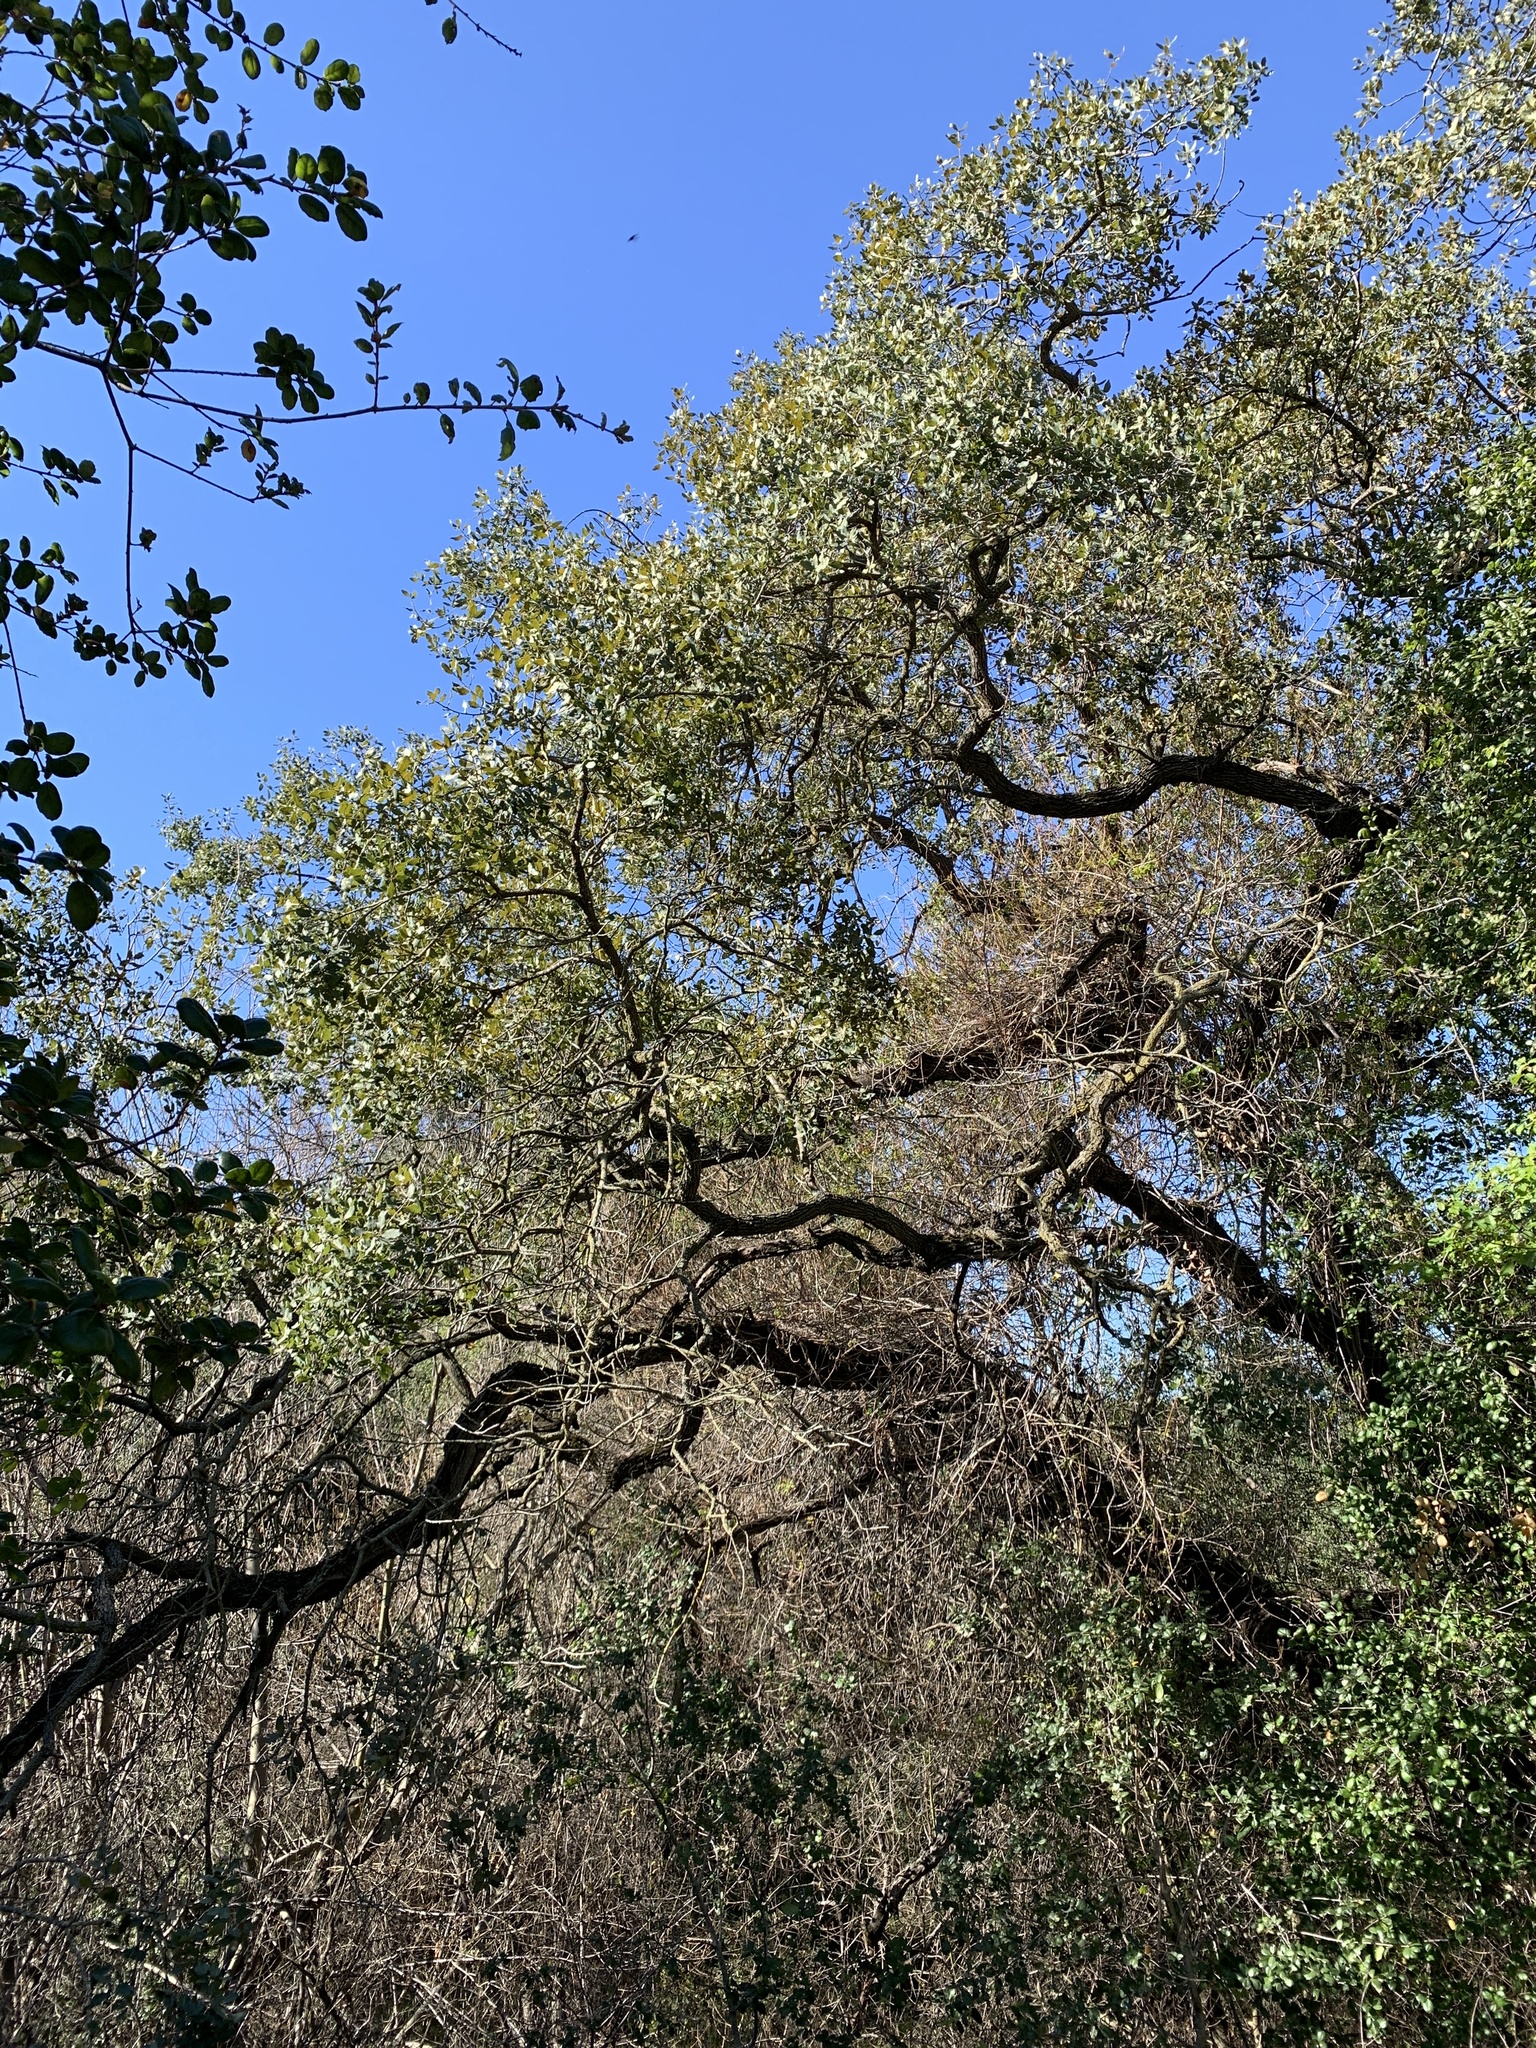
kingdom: Plantae
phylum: Tracheophyta
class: Magnoliopsida
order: Fagales
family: Fagaceae
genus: Quercus
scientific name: Quercus engelmannii
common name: Engelmann oak
